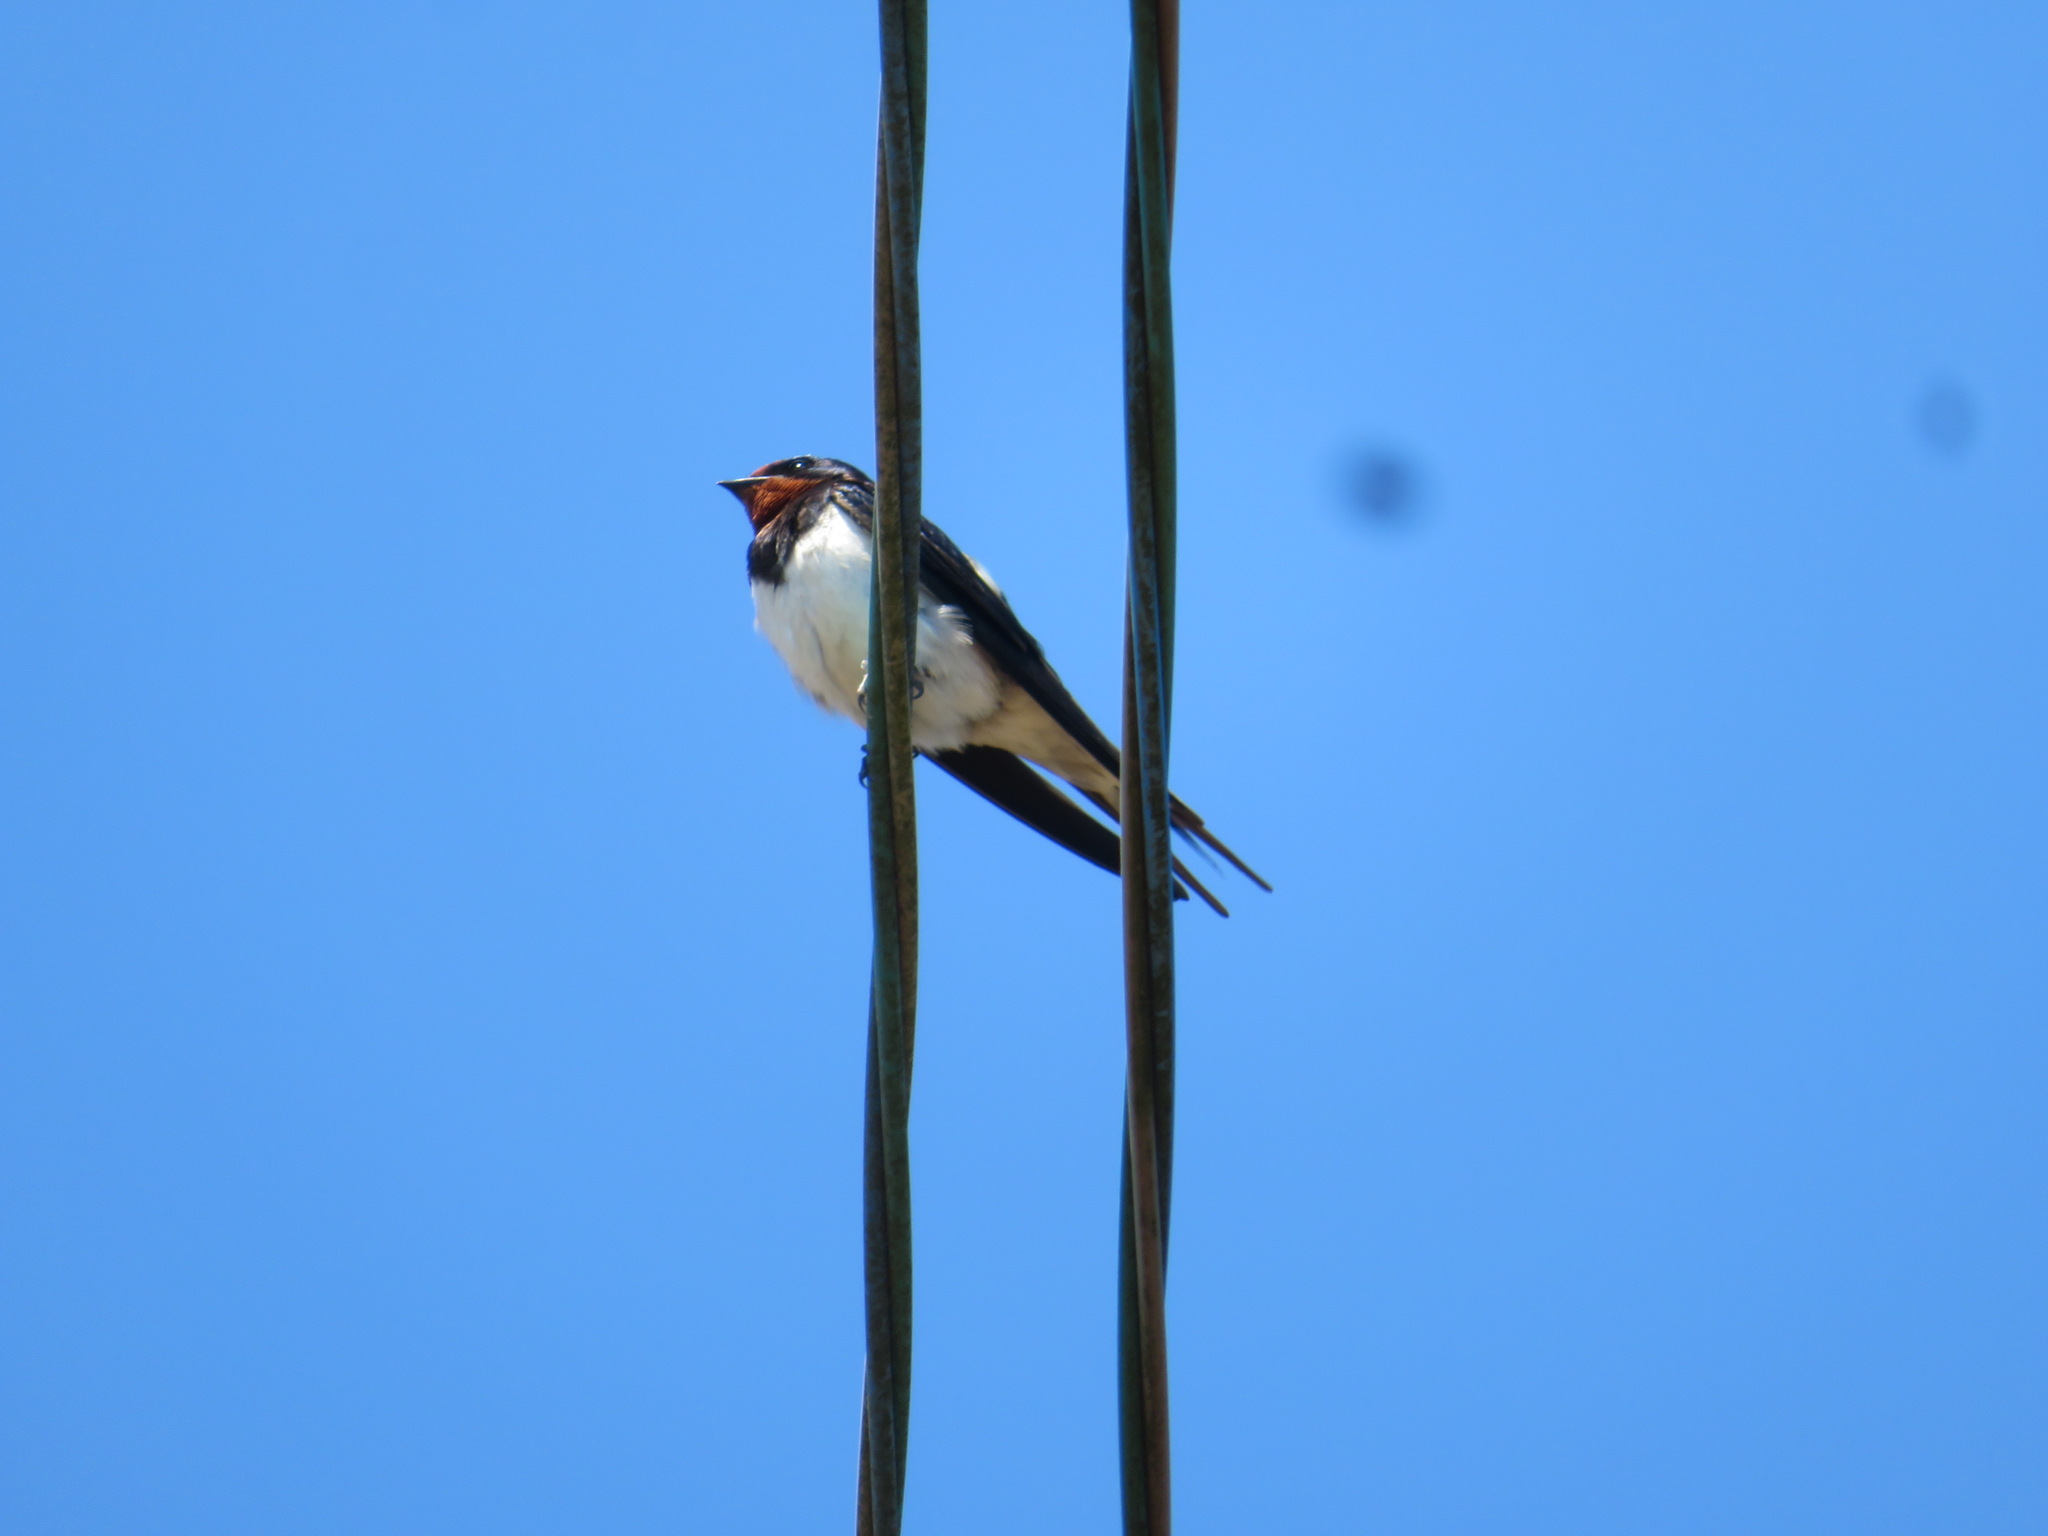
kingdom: Animalia
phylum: Chordata
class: Aves
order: Passeriformes
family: Hirundinidae
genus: Hirundo
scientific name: Hirundo rustica
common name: Barn swallow
